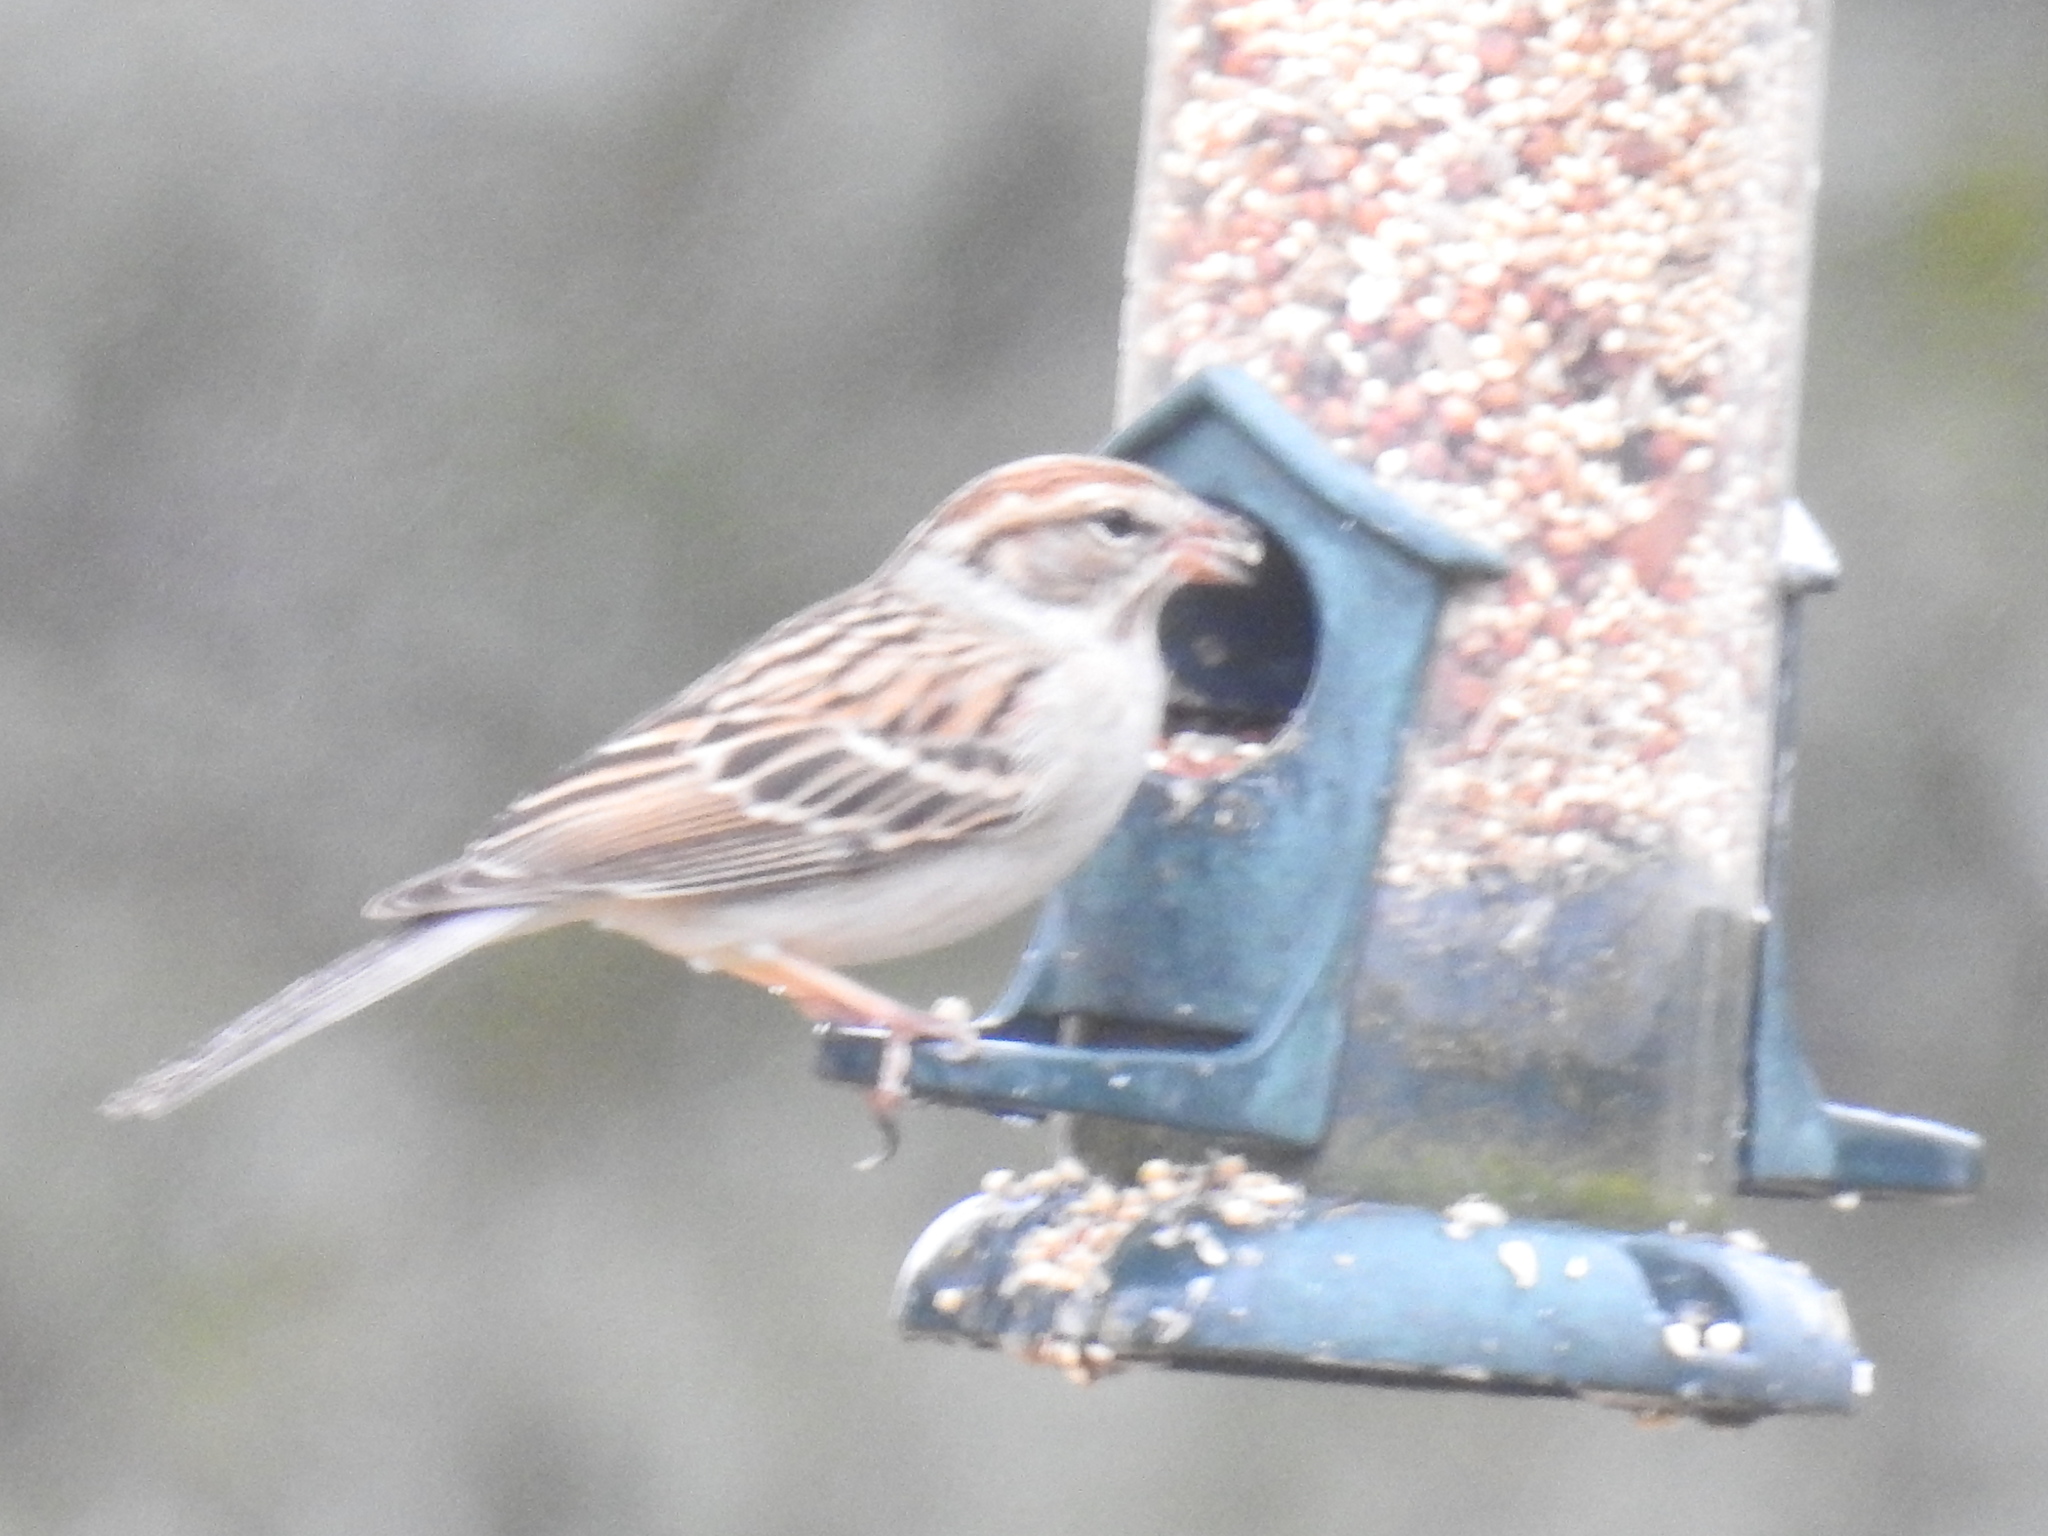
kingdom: Animalia
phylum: Chordata
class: Aves
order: Passeriformes
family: Passerellidae
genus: Spizella
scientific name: Spizella passerina
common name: Chipping sparrow
